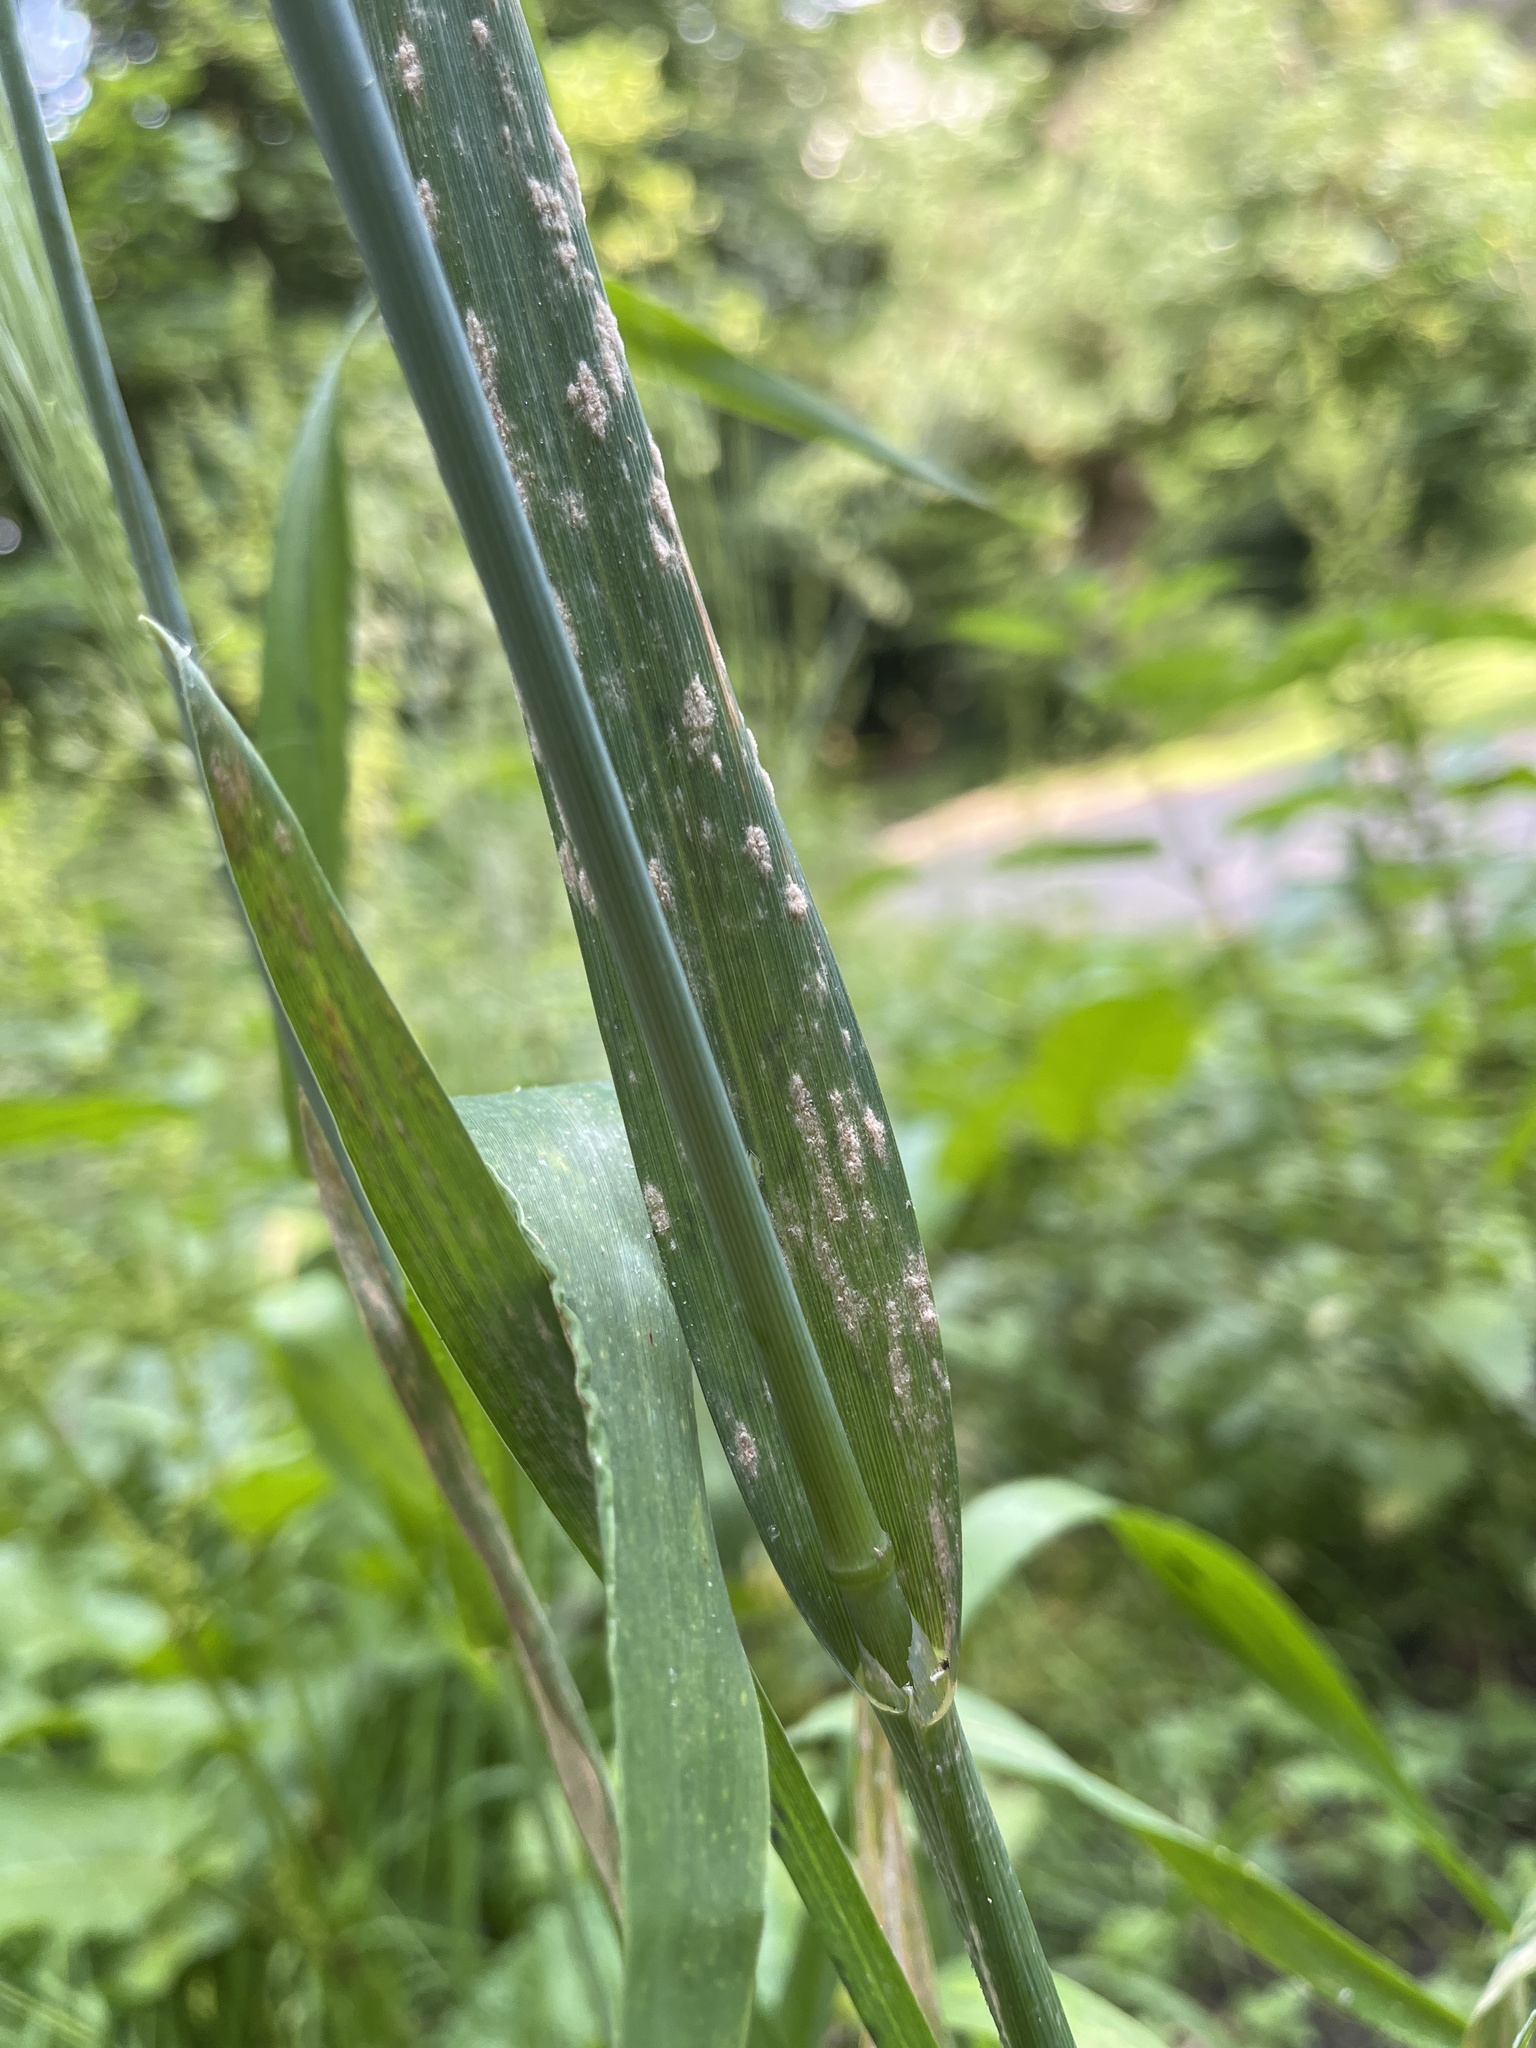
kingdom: Plantae
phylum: Tracheophyta
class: Liliopsida
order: Poales
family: Poaceae
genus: Avena
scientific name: Avena sativa
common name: Oat
